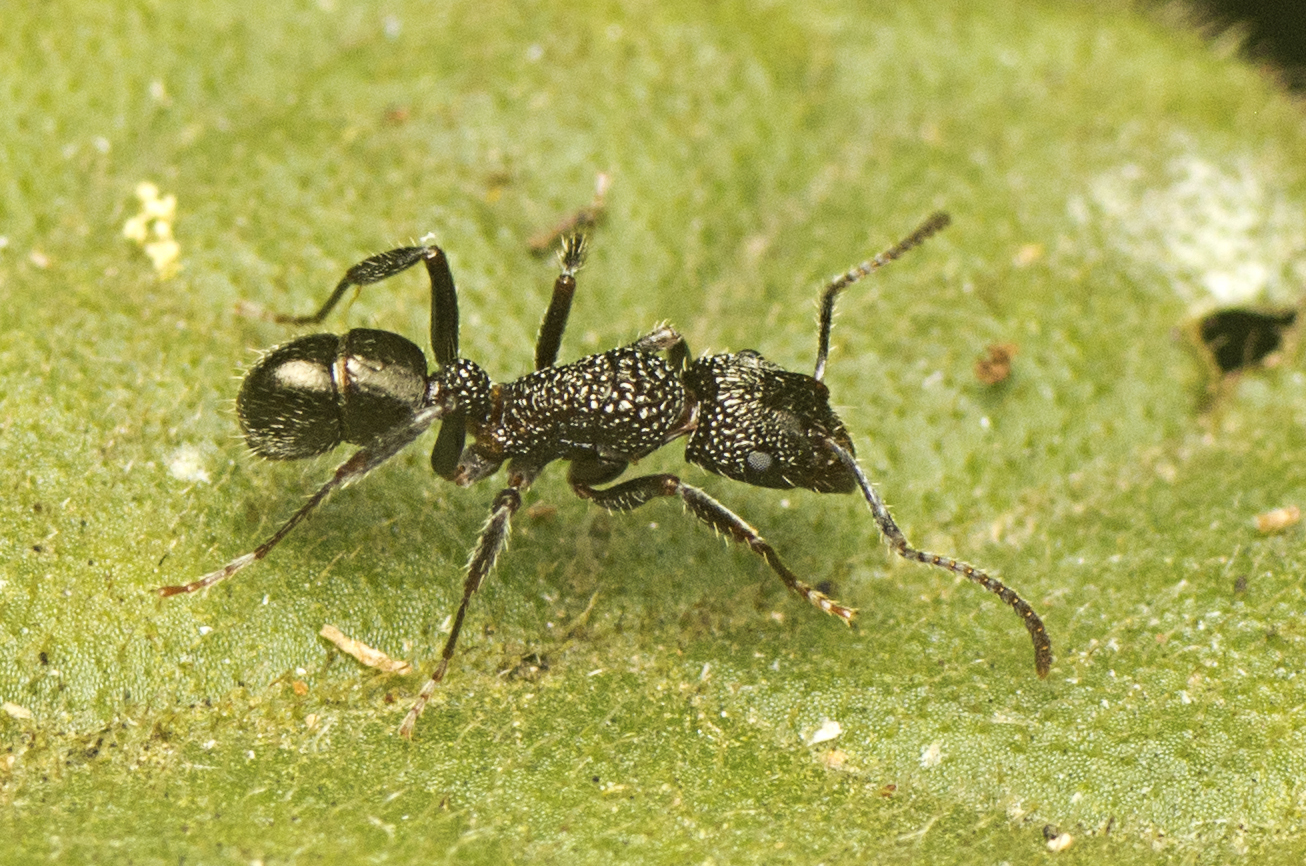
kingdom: Animalia
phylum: Arthropoda
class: Insecta
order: Hymenoptera
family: Formicidae
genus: Rhytidoponera
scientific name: Rhytidoponera anceps
